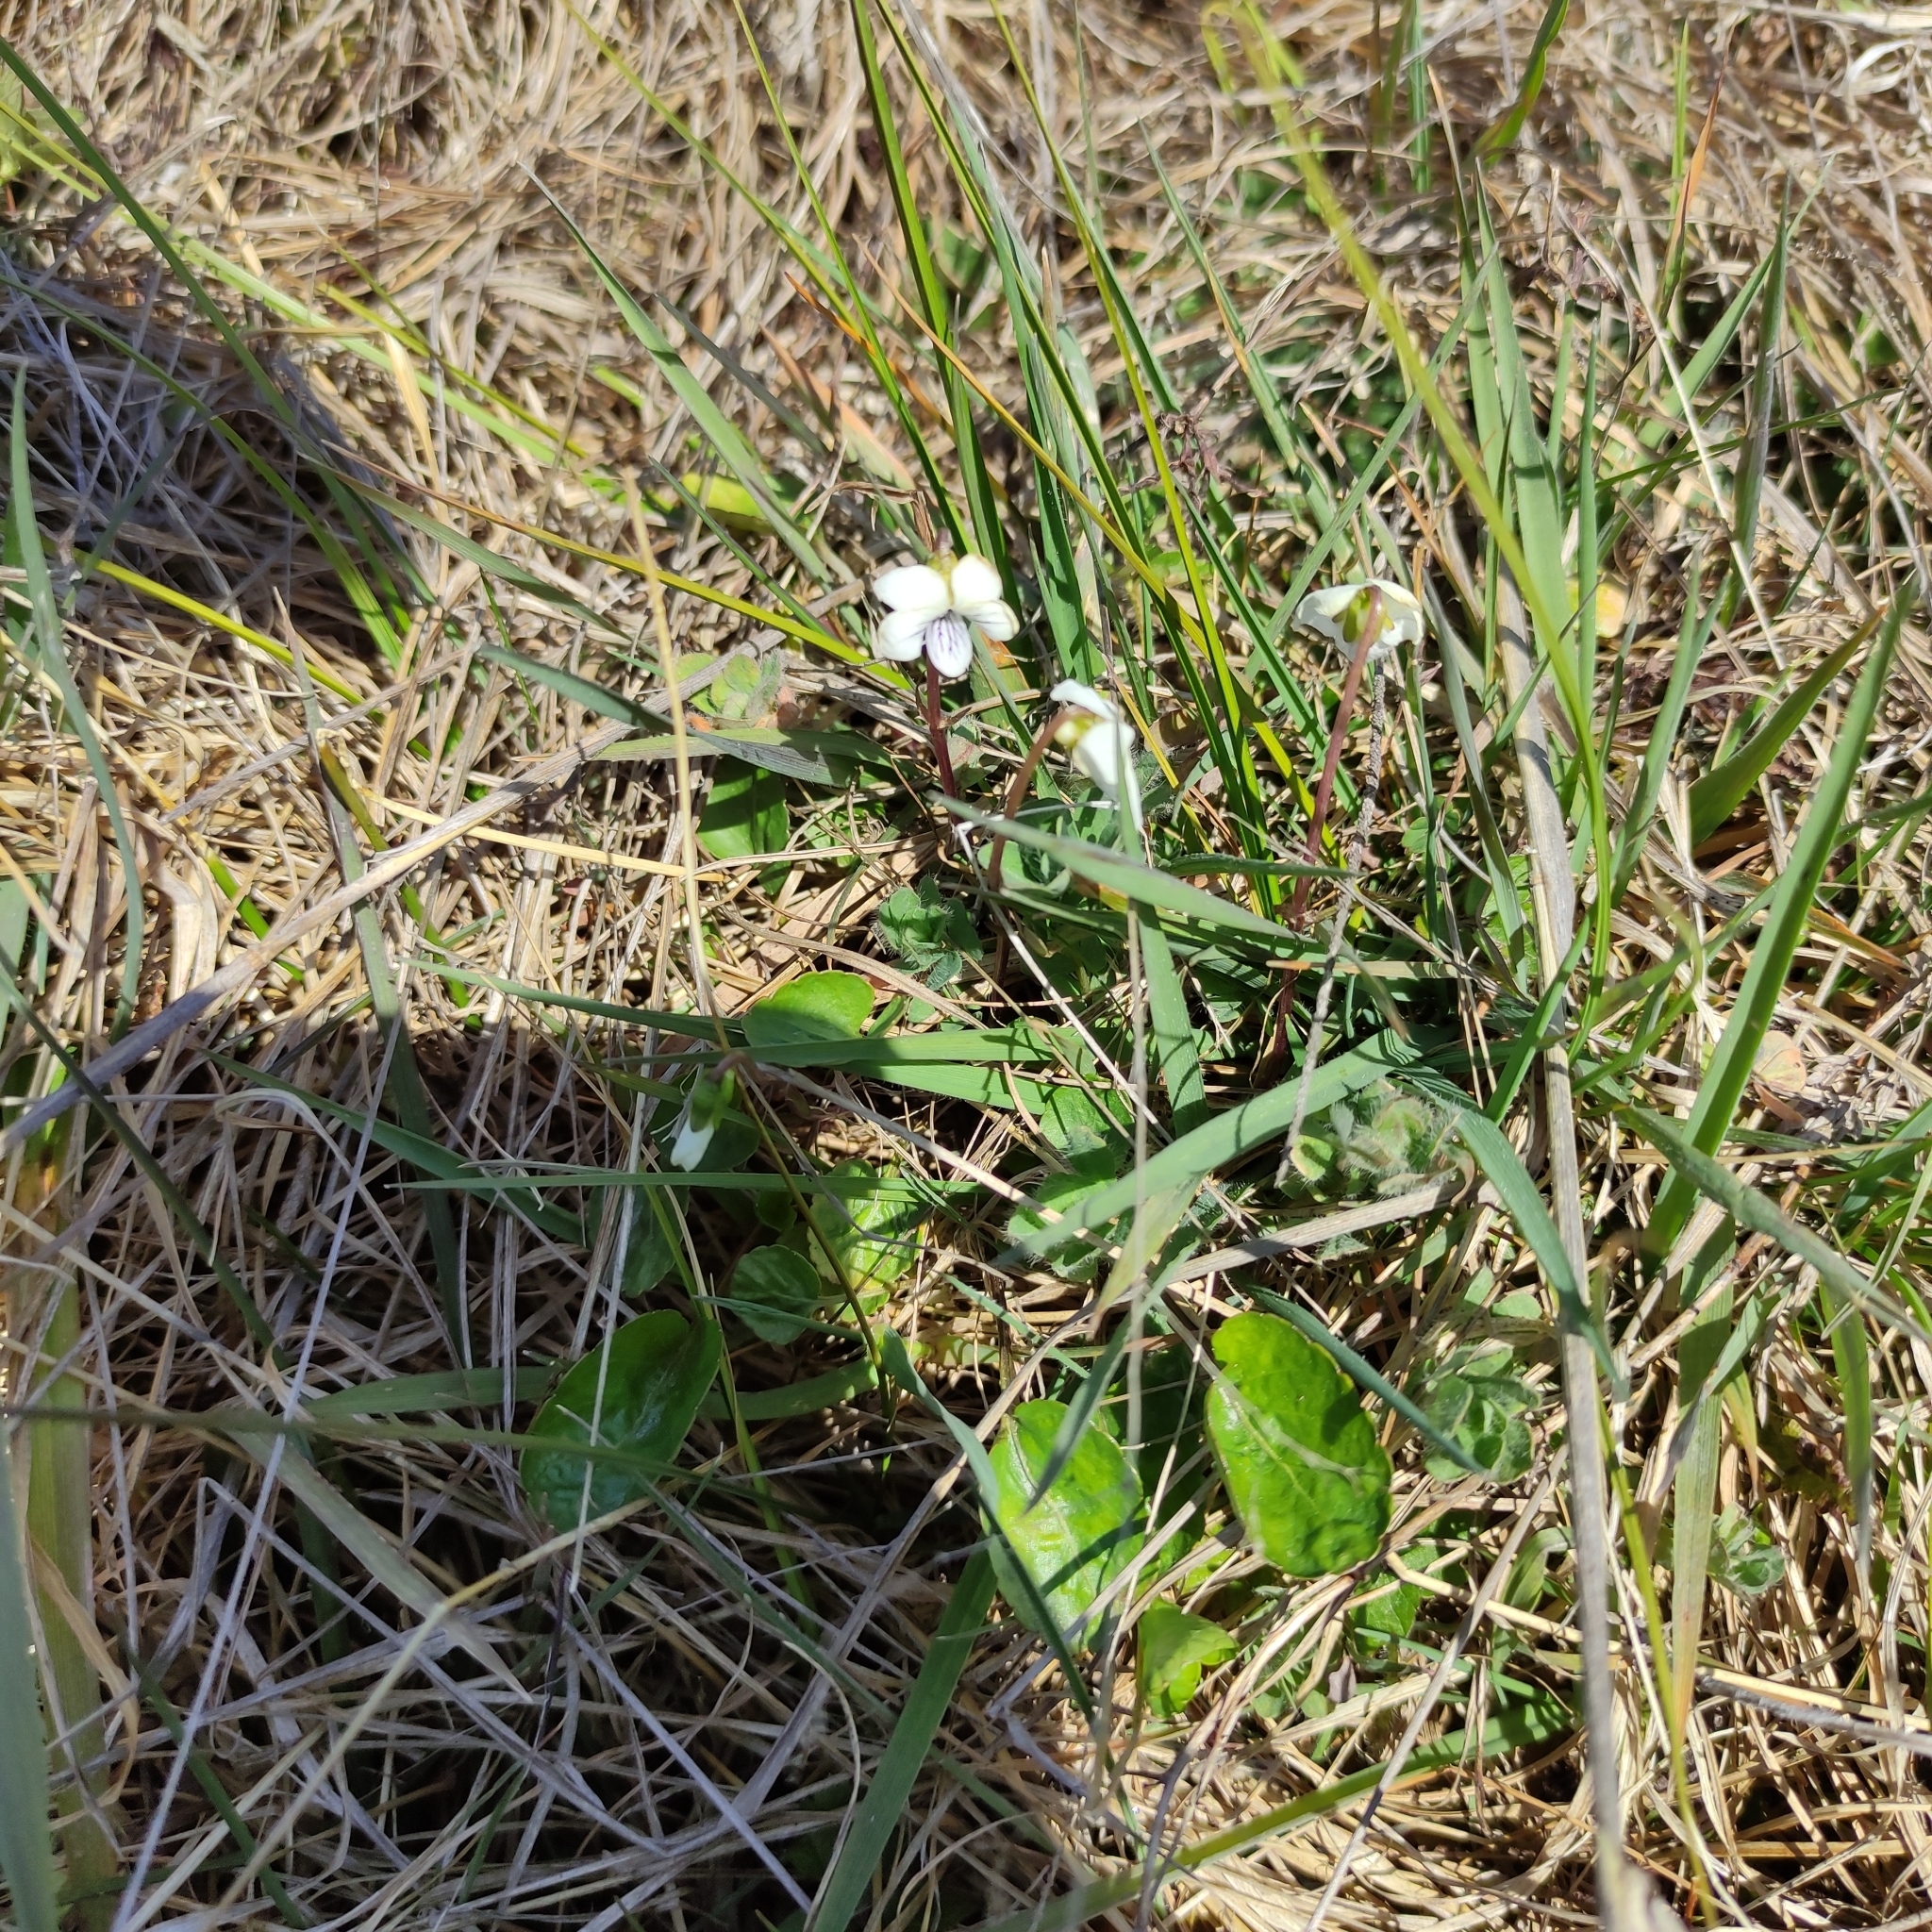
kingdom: Plantae
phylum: Tracheophyta
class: Magnoliopsida
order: Malpighiales
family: Violaceae
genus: Viola
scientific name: Viola cunninghamii
